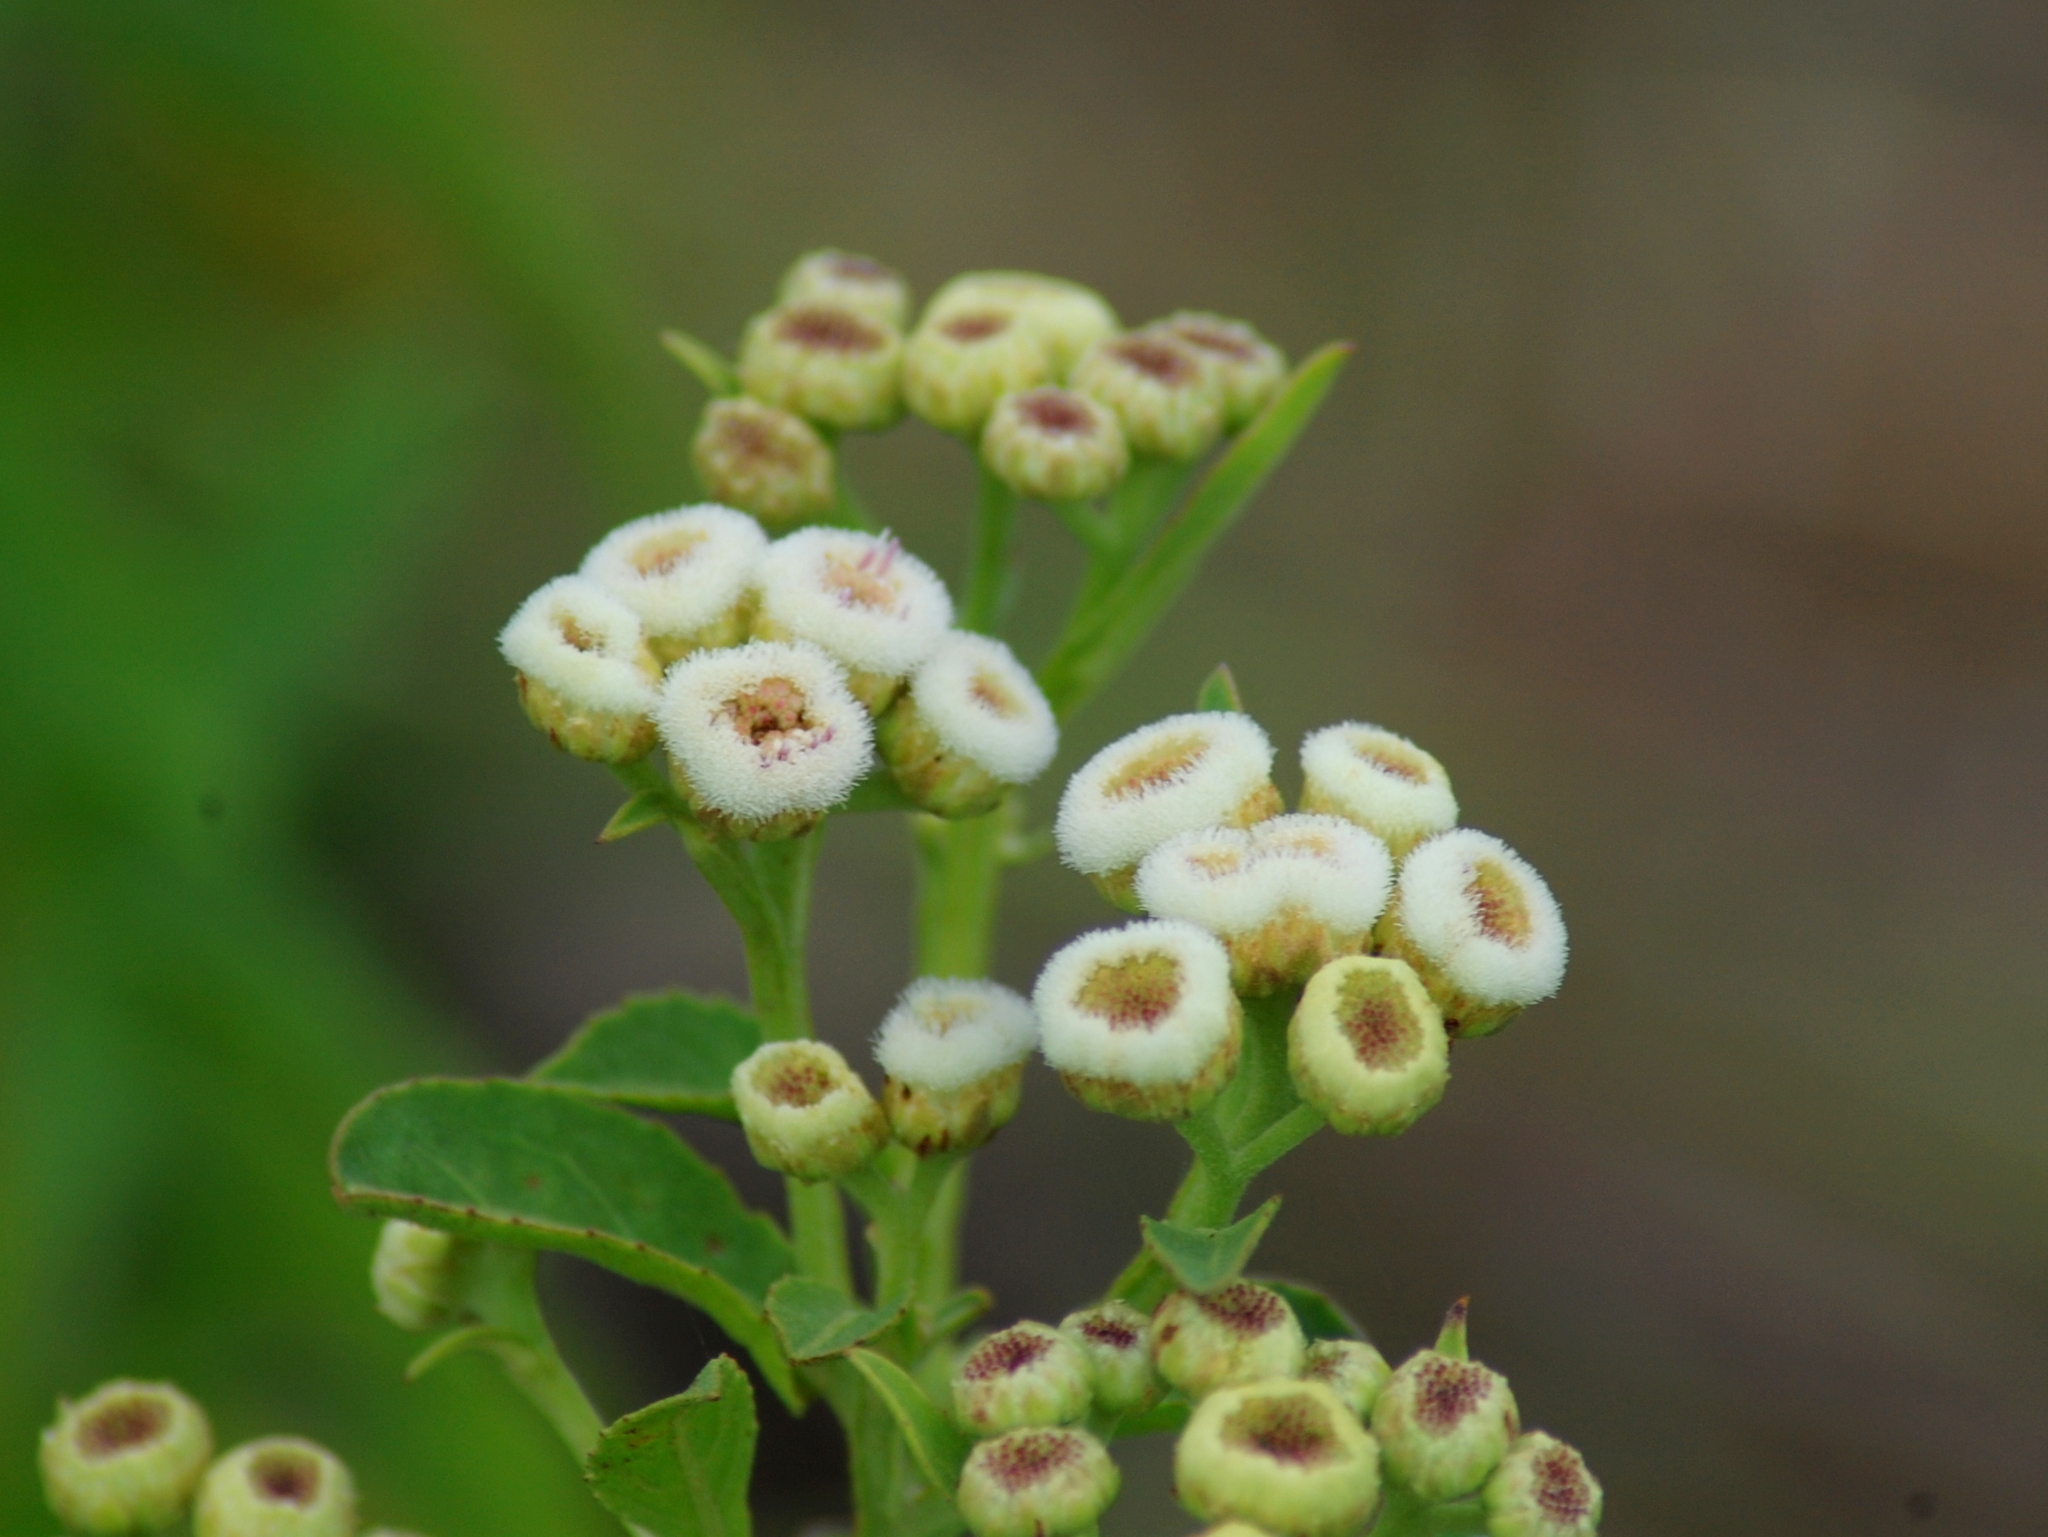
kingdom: Plantae
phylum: Tracheophyta
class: Magnoliopsida
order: Asterales
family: Asteraceae
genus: Pluchea
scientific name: Pluchea sagittalis
